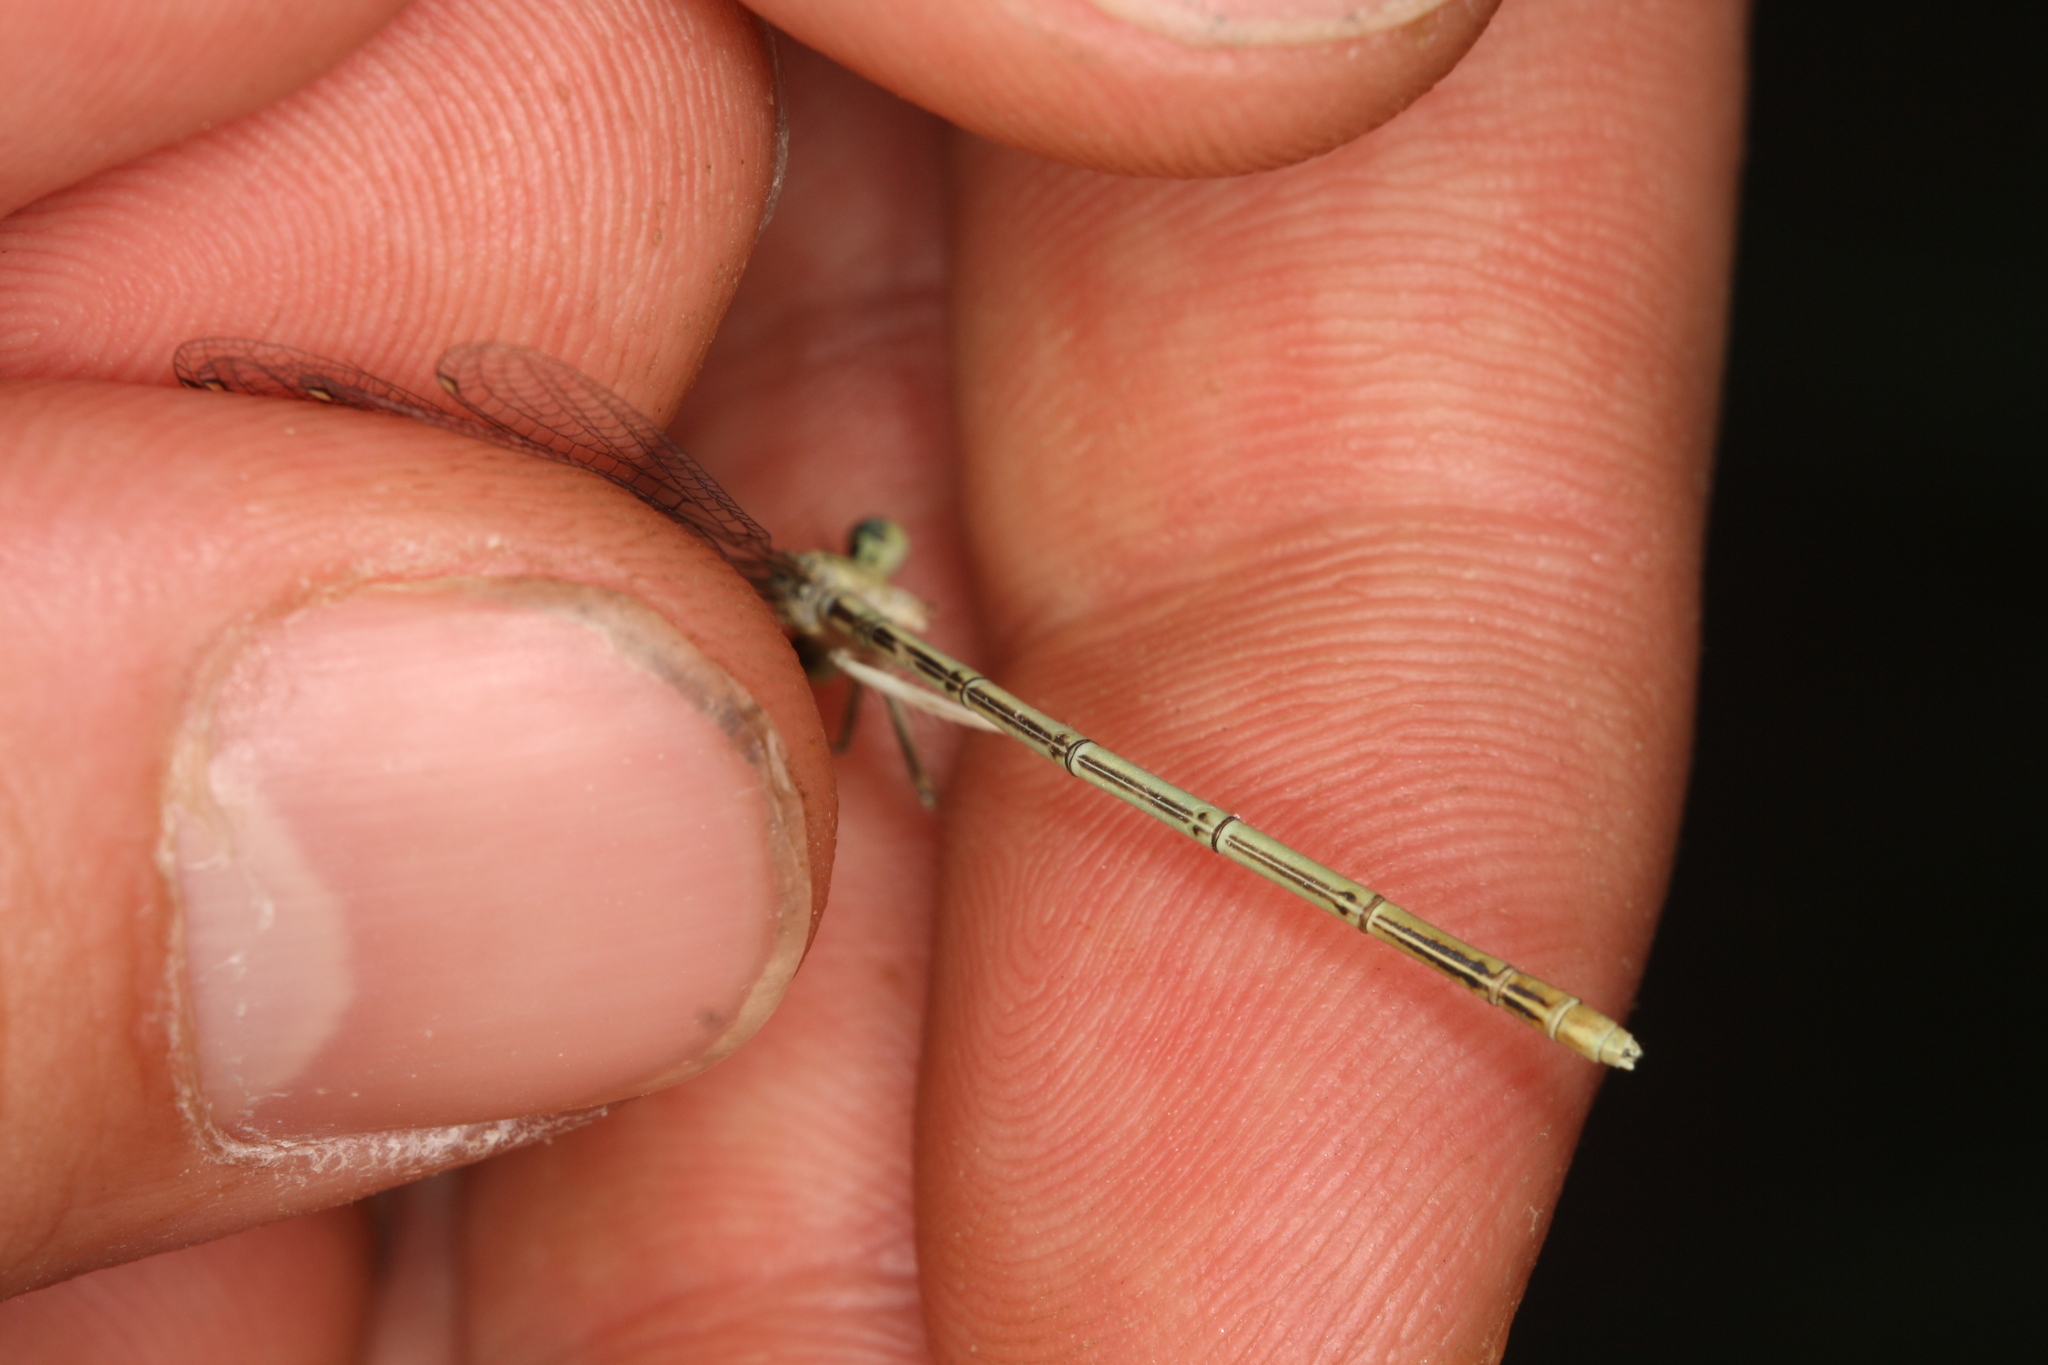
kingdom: Animalia
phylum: Arthropoda
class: Insecta
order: Odonata
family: Platycnemididae
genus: Platycnemis
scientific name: Platycnemis pennipes
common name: White-legged damselfly
